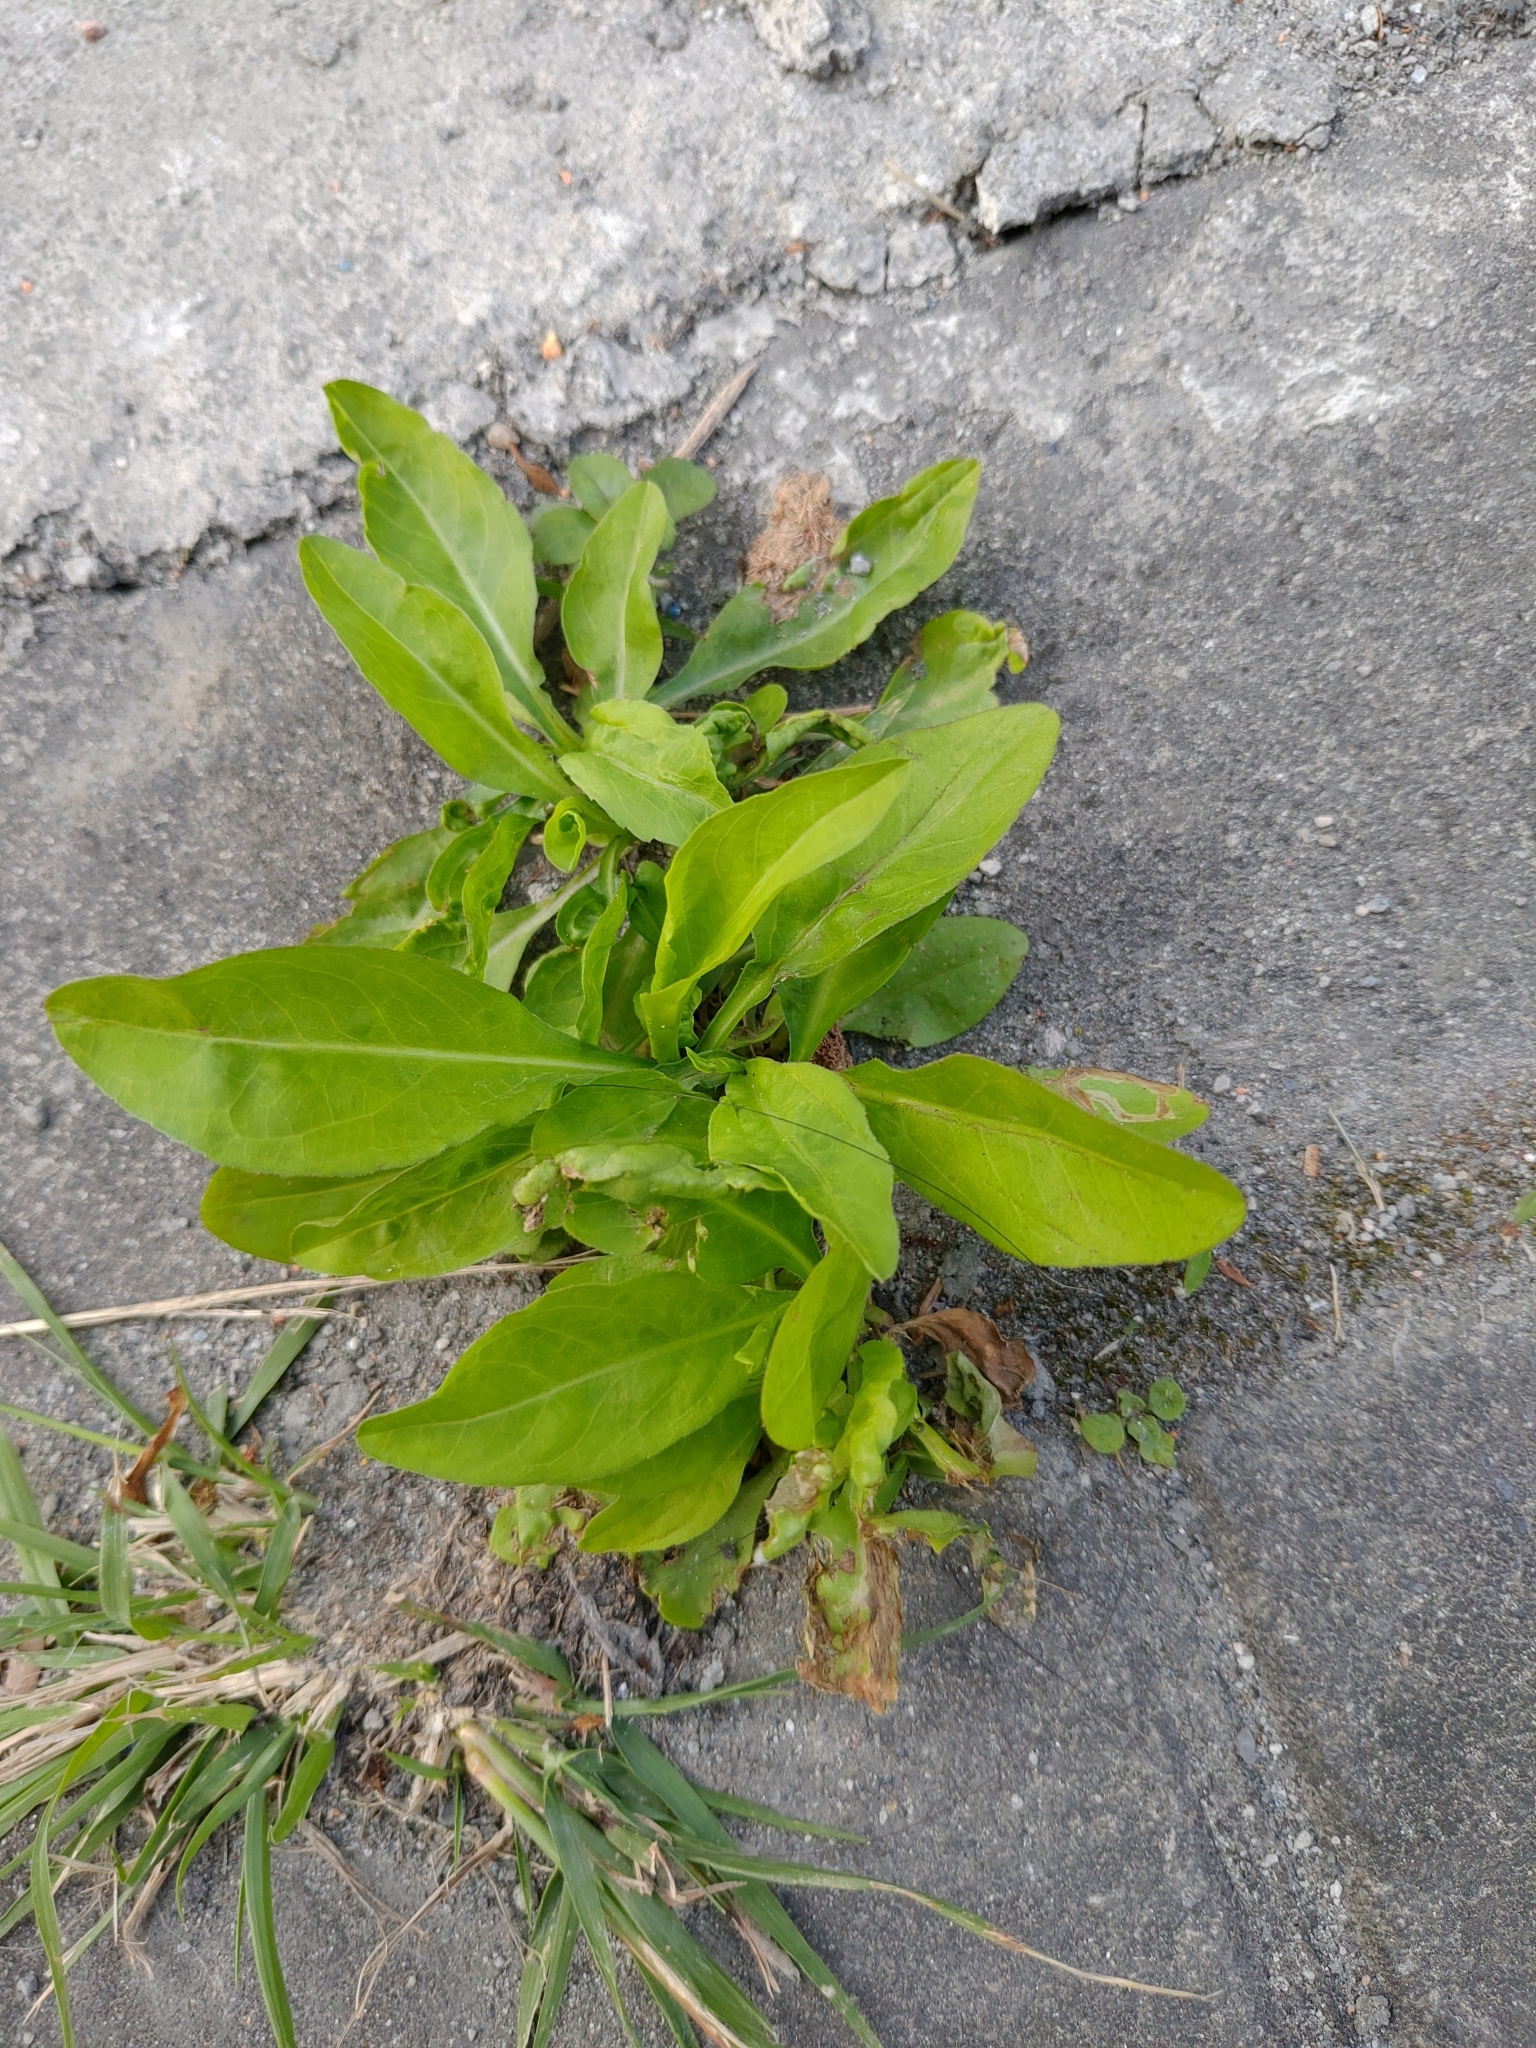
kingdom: Plantae
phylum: Tracheophyta
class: Magnoliopsida
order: Asterales
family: Asteraceae
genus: Symphyotrichum
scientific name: Symphyotrichum subulatum
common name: Annual saltmarsh aster
